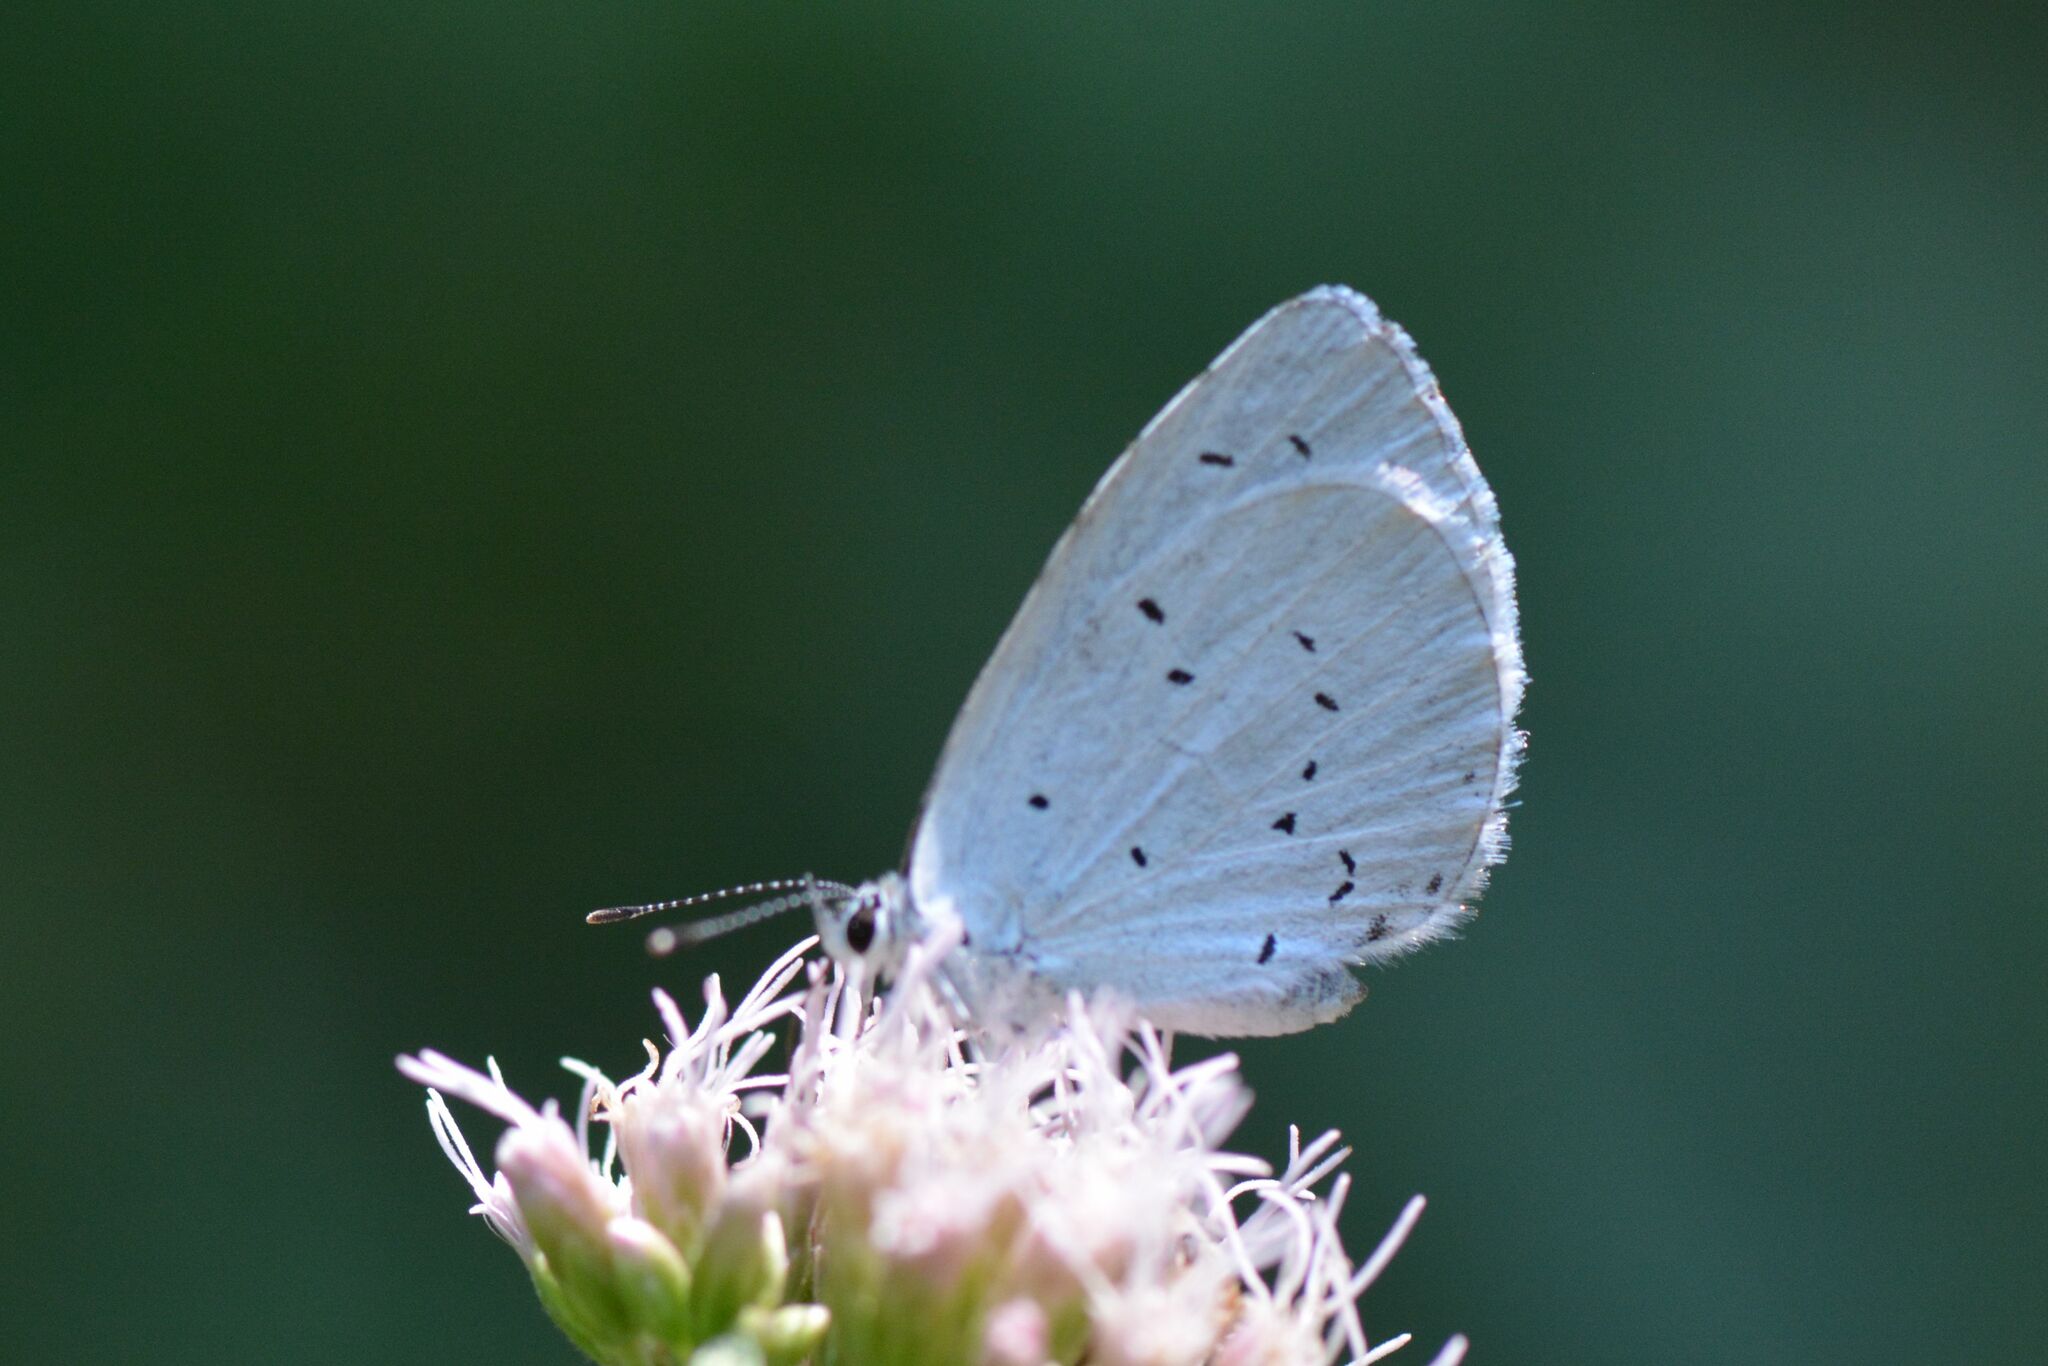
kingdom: Animalia
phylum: Arthropoda
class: Insecta
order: Lepidoptera
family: Lycaenidae
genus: Celastrina
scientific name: Celastrina argiolus
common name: Holly blue
